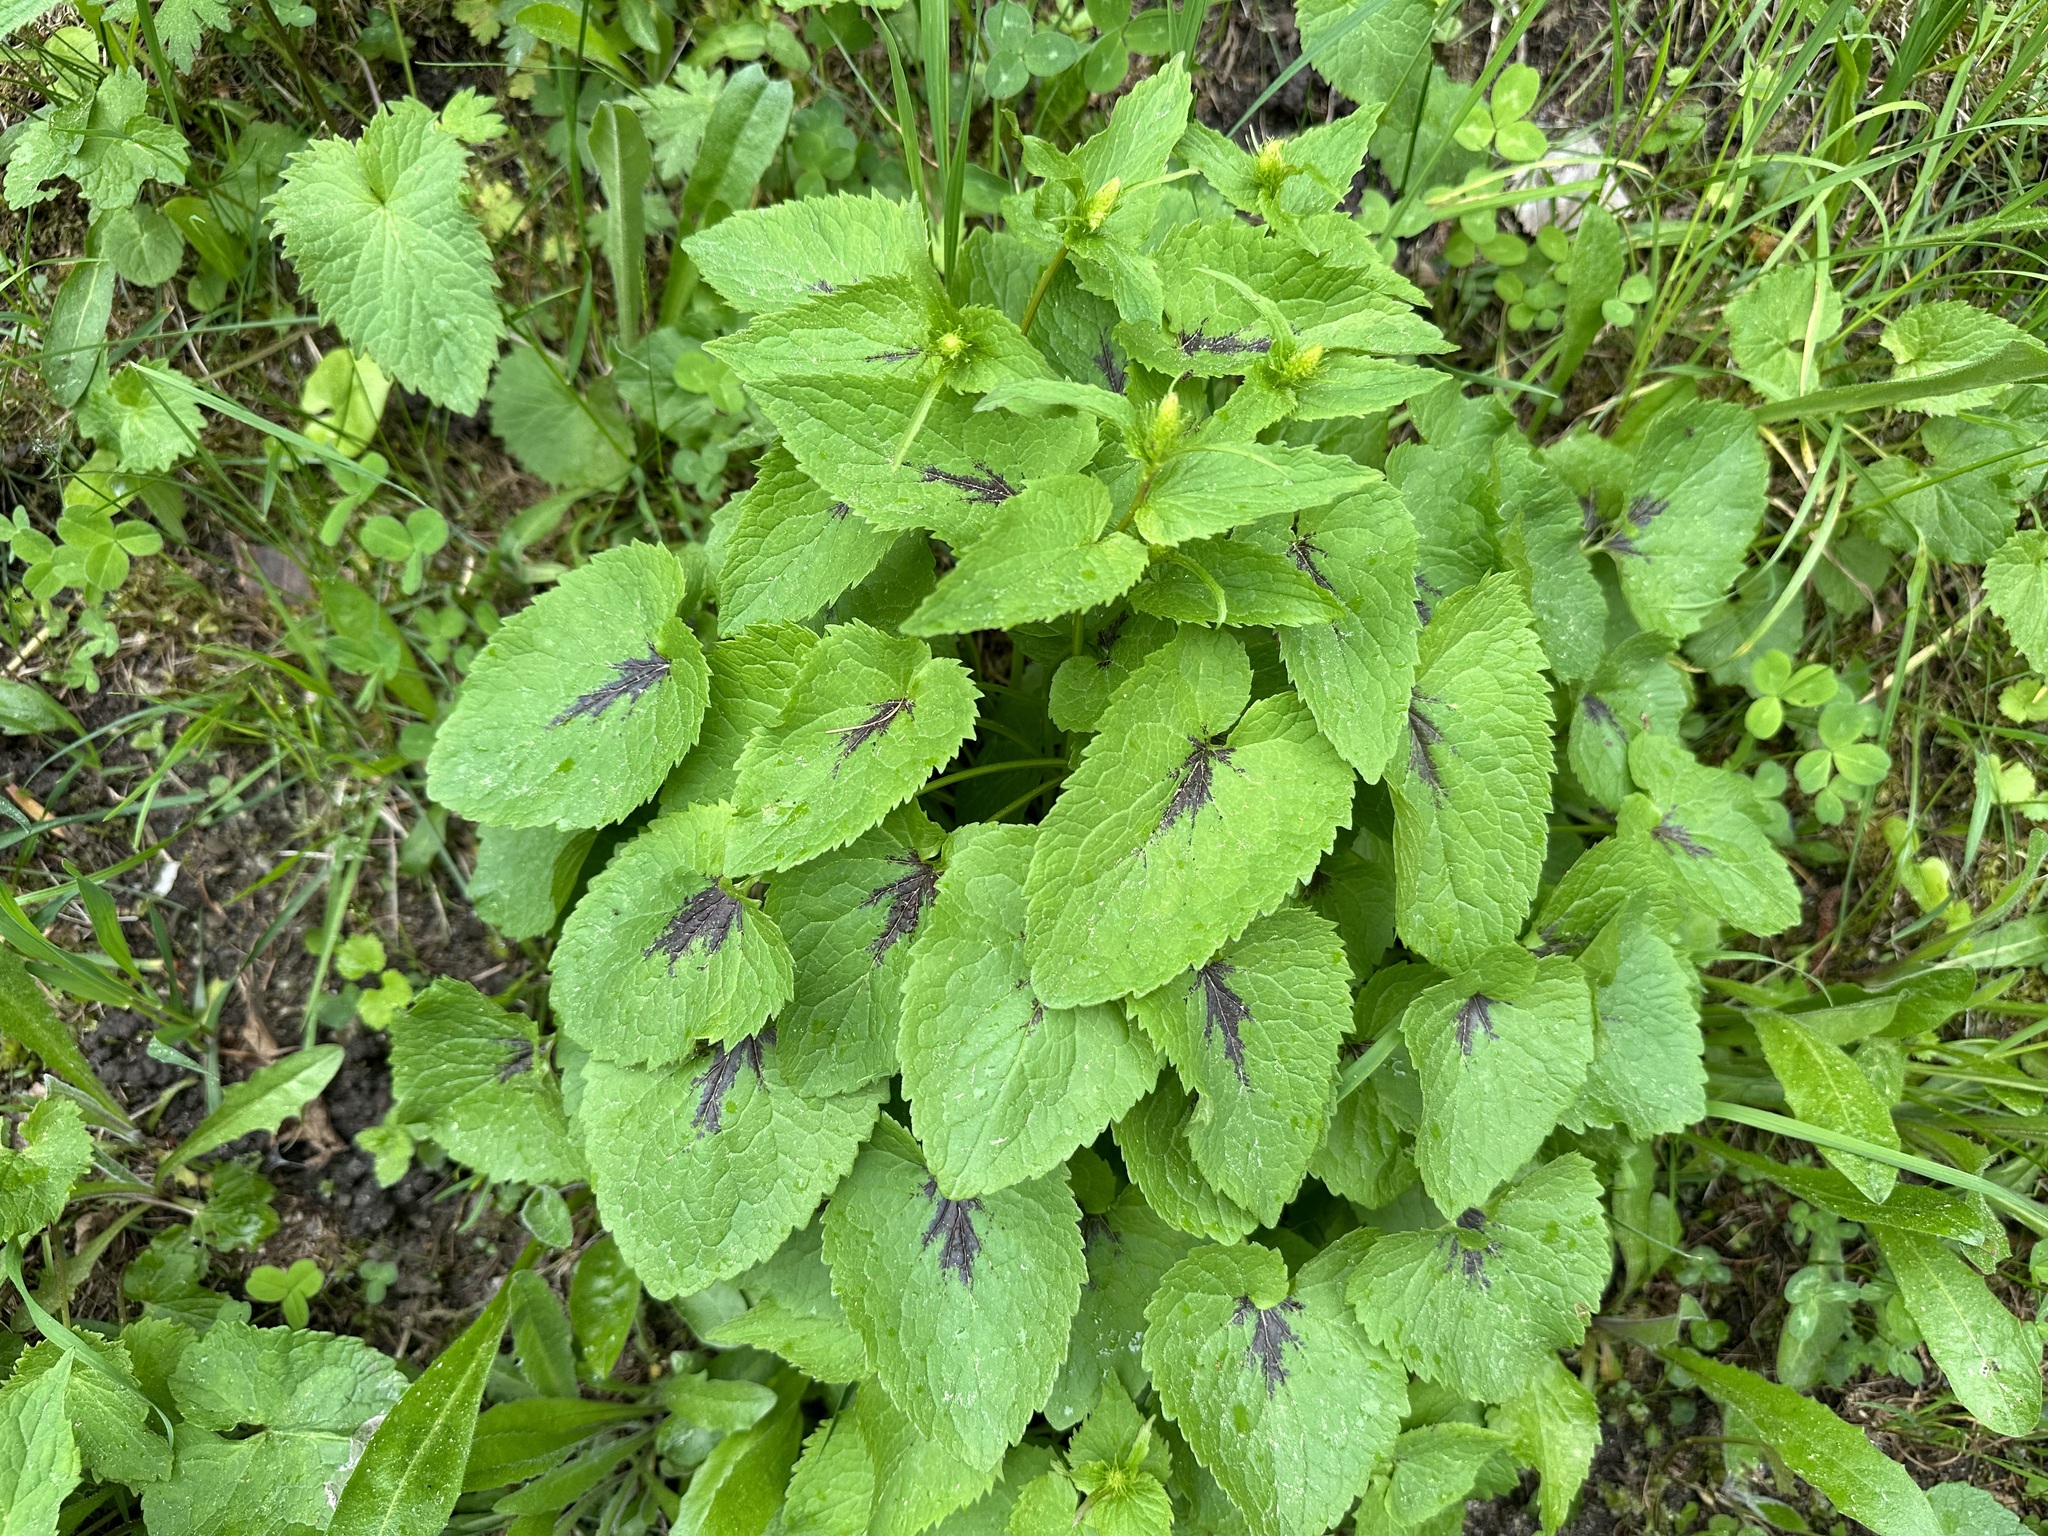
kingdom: Plantae
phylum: Tracheophyta
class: Magnoliopsida
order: Asterales
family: Campanulaceae
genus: Phyteuma
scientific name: Phyteuma spicatum
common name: Spiked rampion
